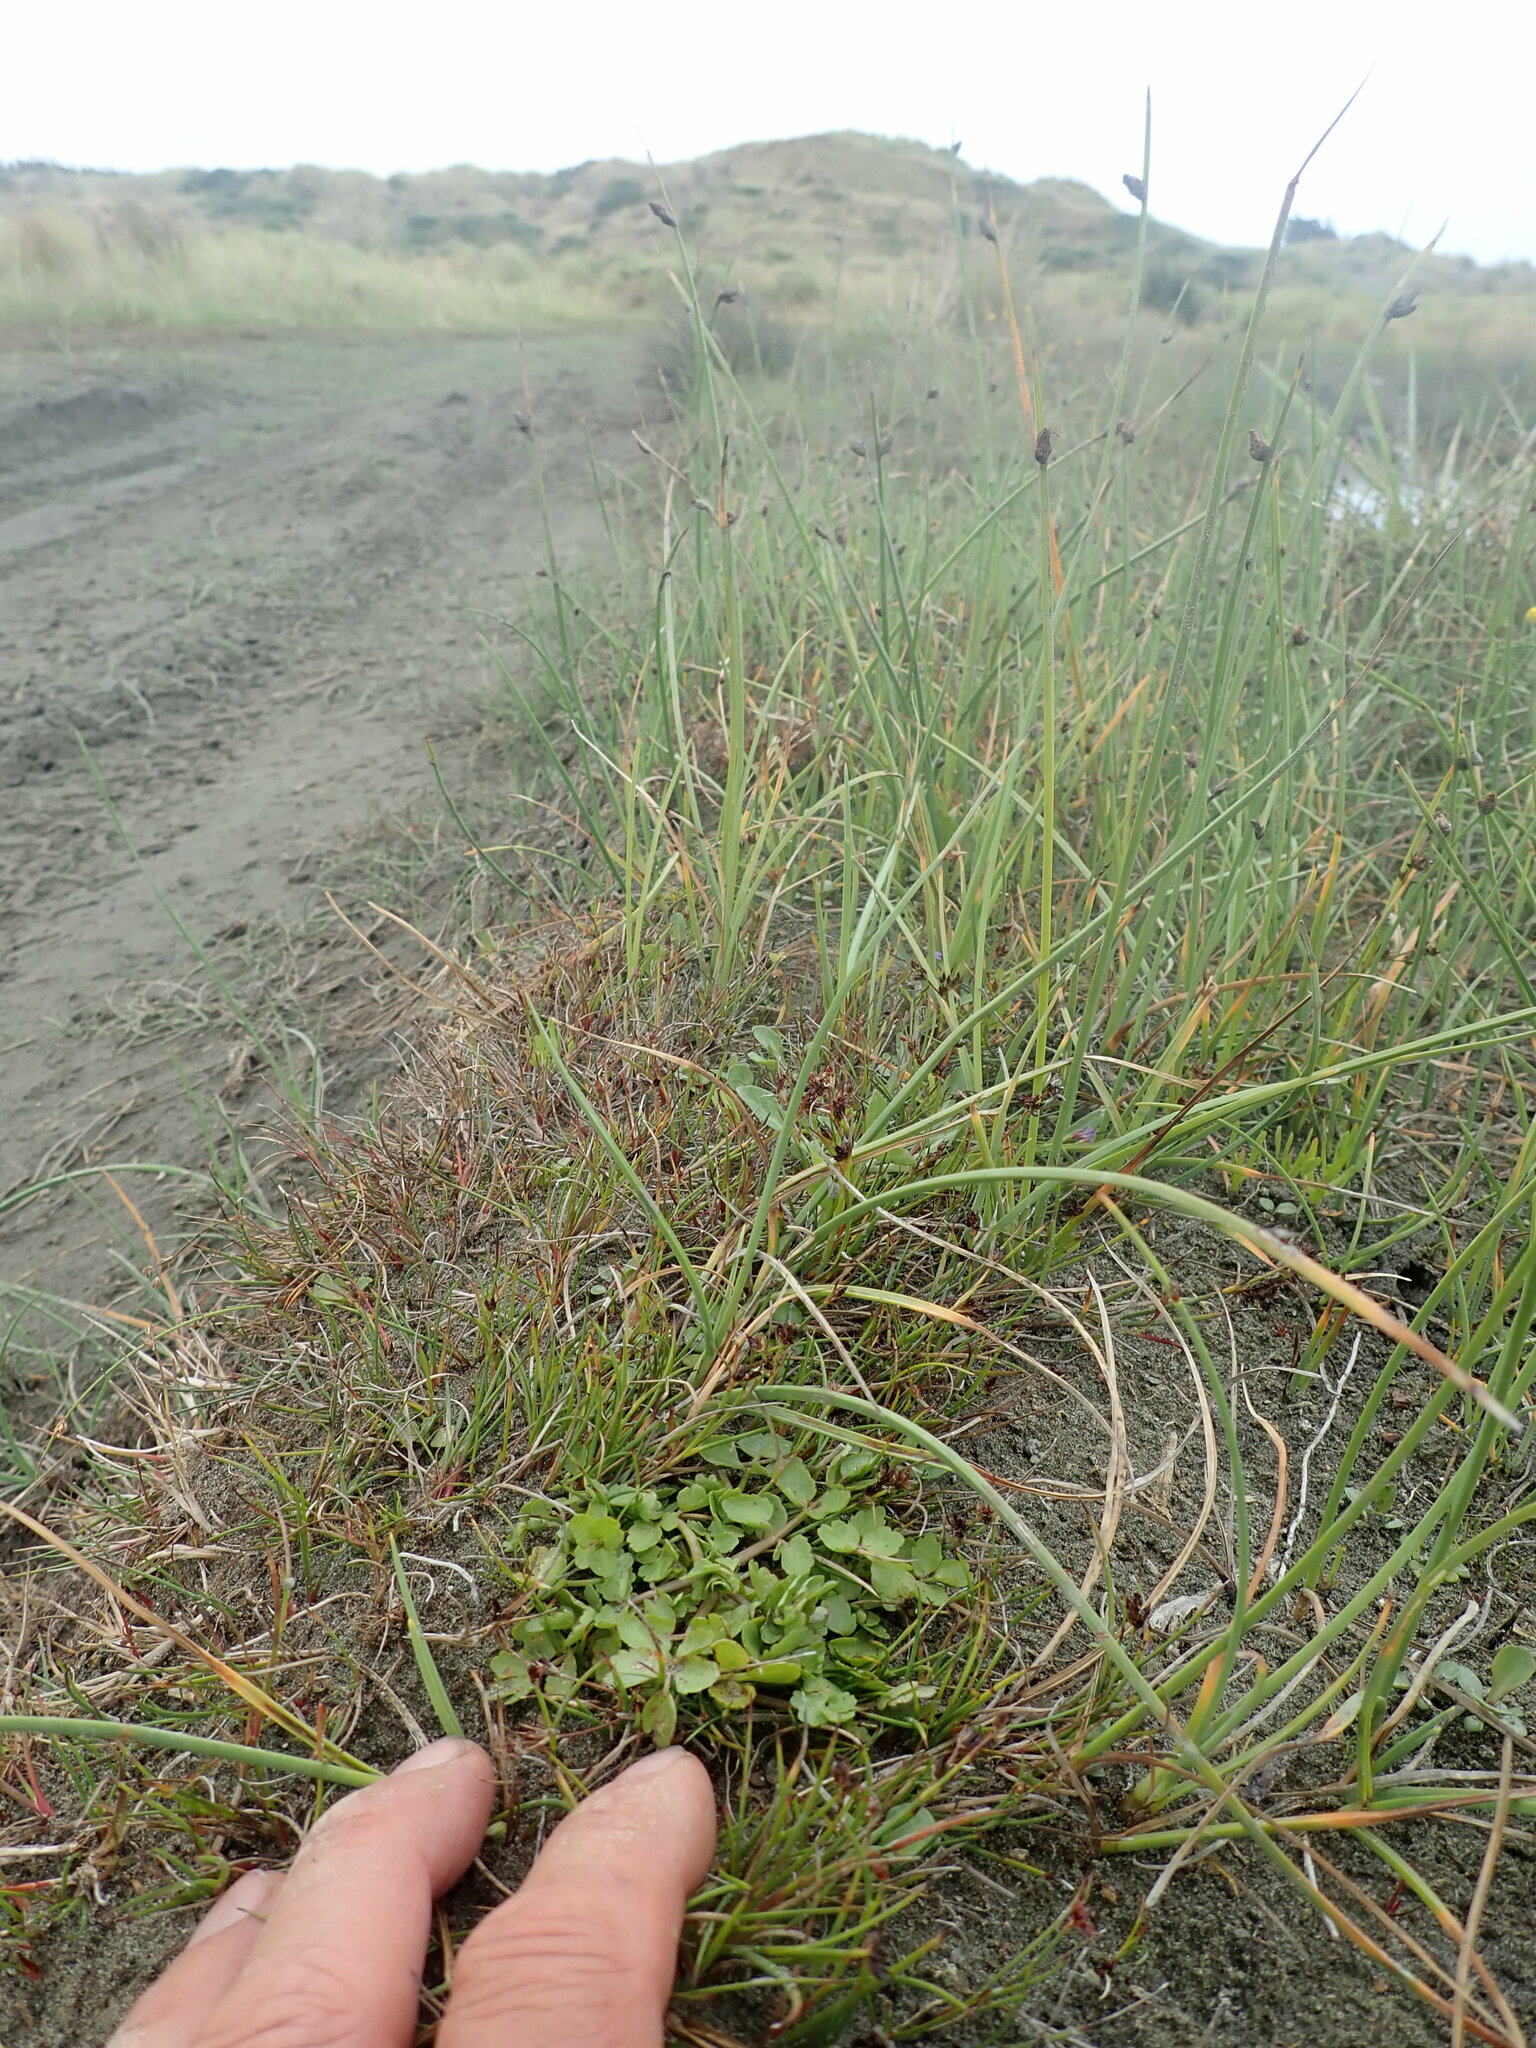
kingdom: Plantae
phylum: Tracheophyta
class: Magnoliopsida
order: Apiales
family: Apiaceae
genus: Helosciadium
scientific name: Helosciadium nodiflorum
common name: Fool's-watercress
